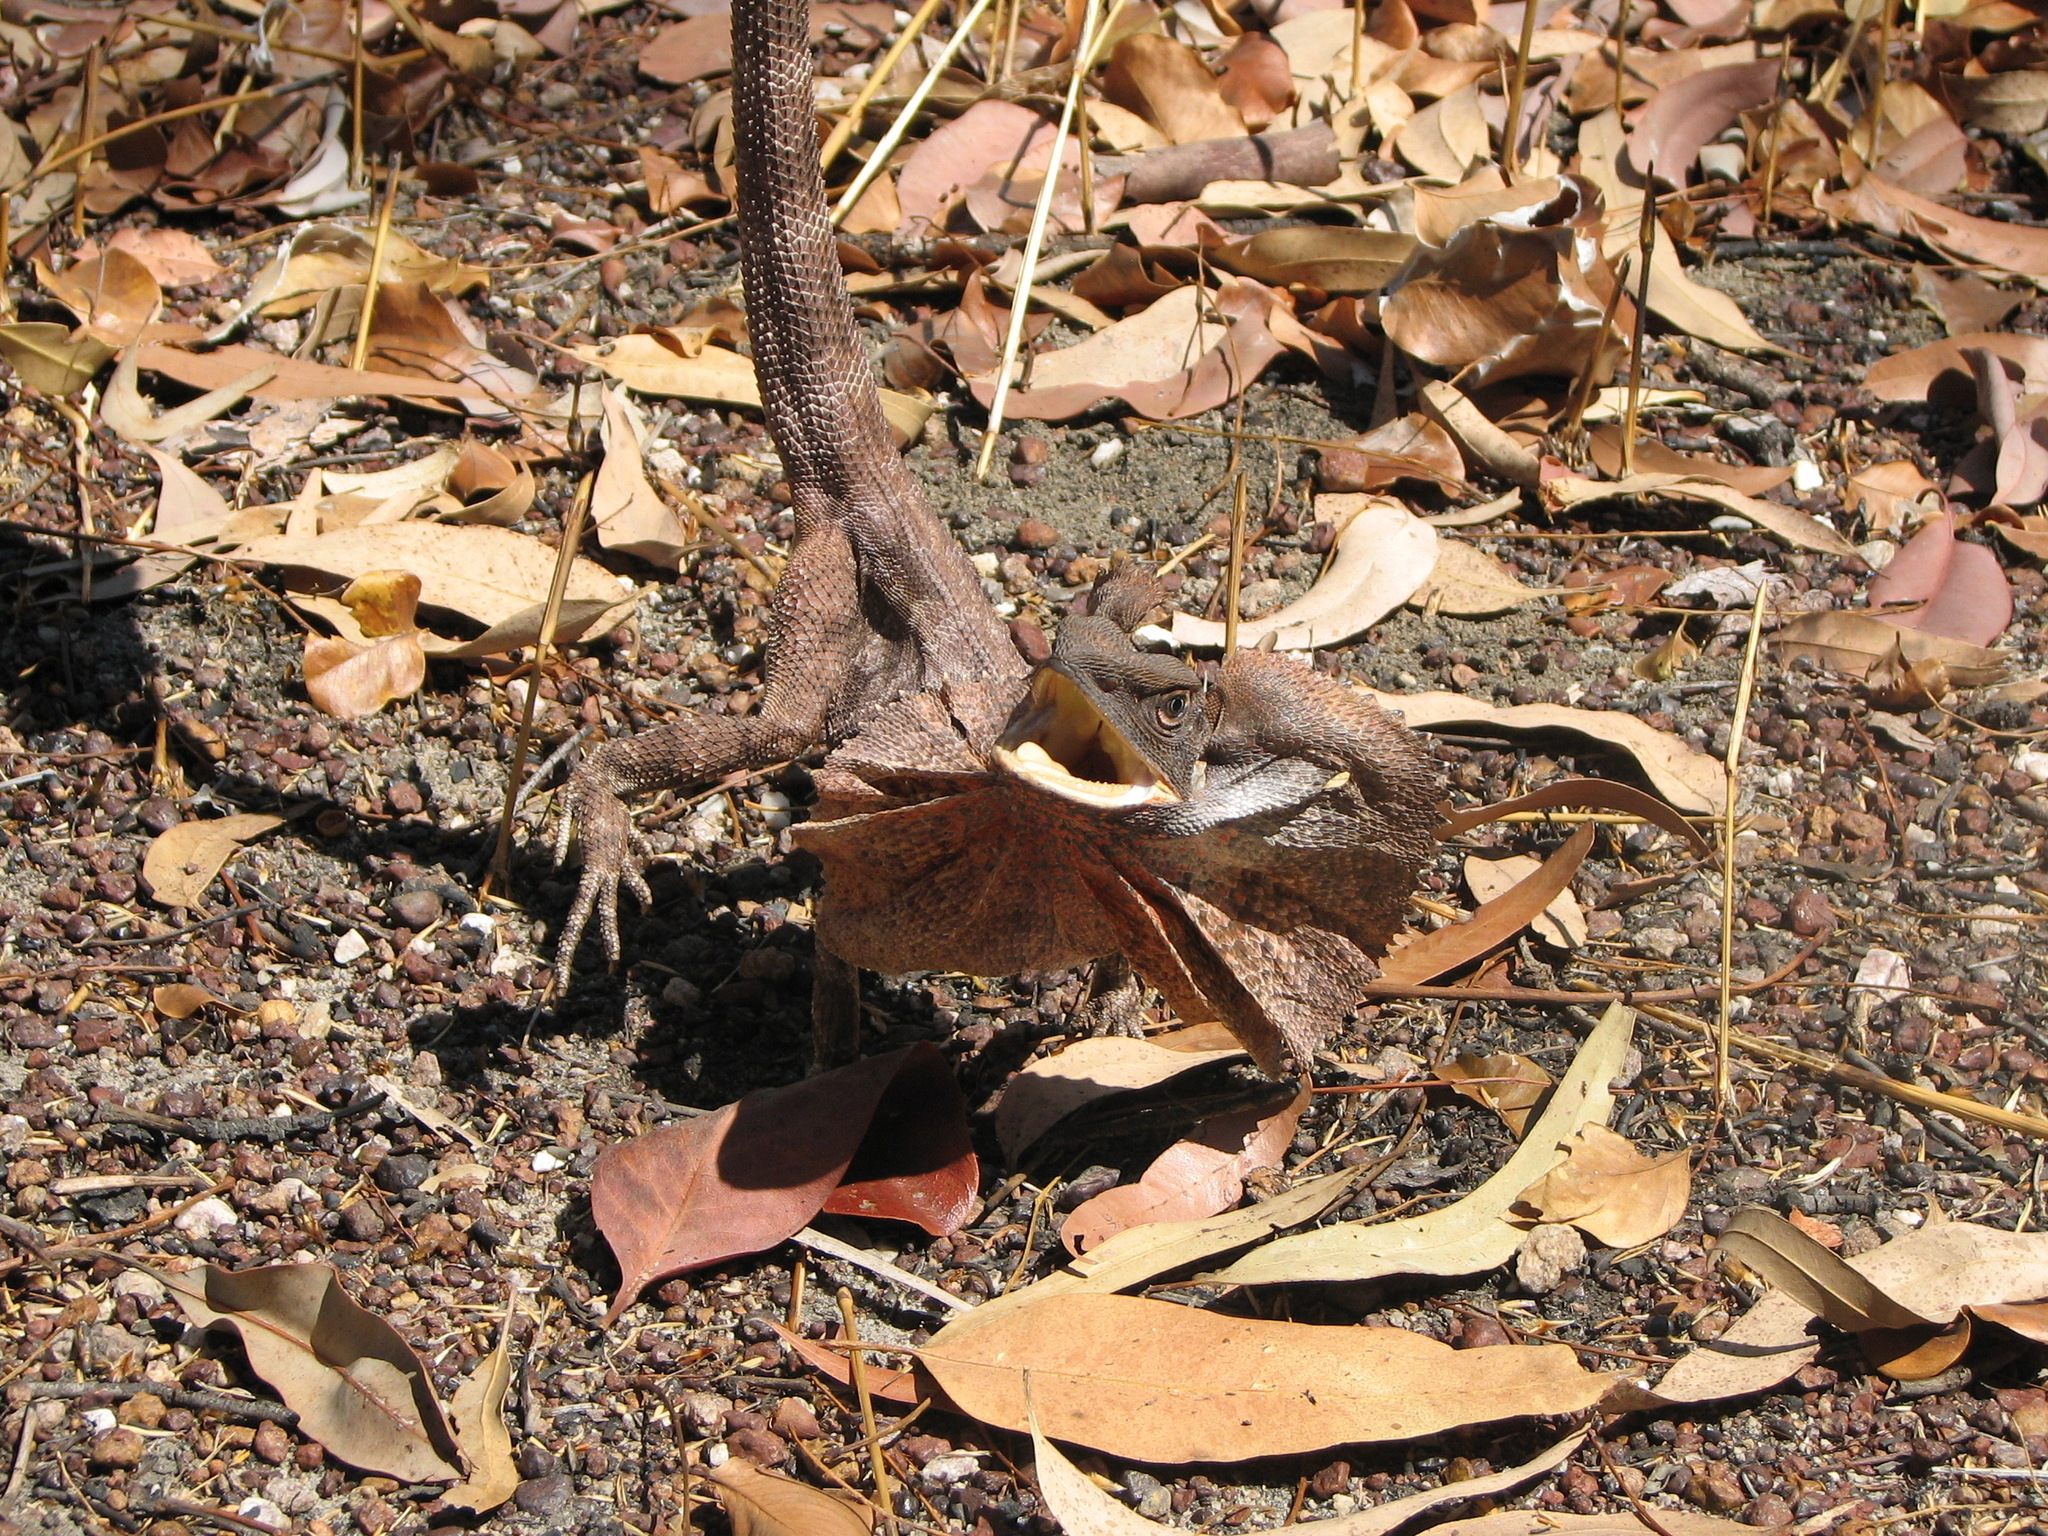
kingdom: Animalia
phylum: Chordata
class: Squamata
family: Agamidae
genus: Chlamydosaurus
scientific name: Chlamydosaurus kingii
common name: Frilled lizard
